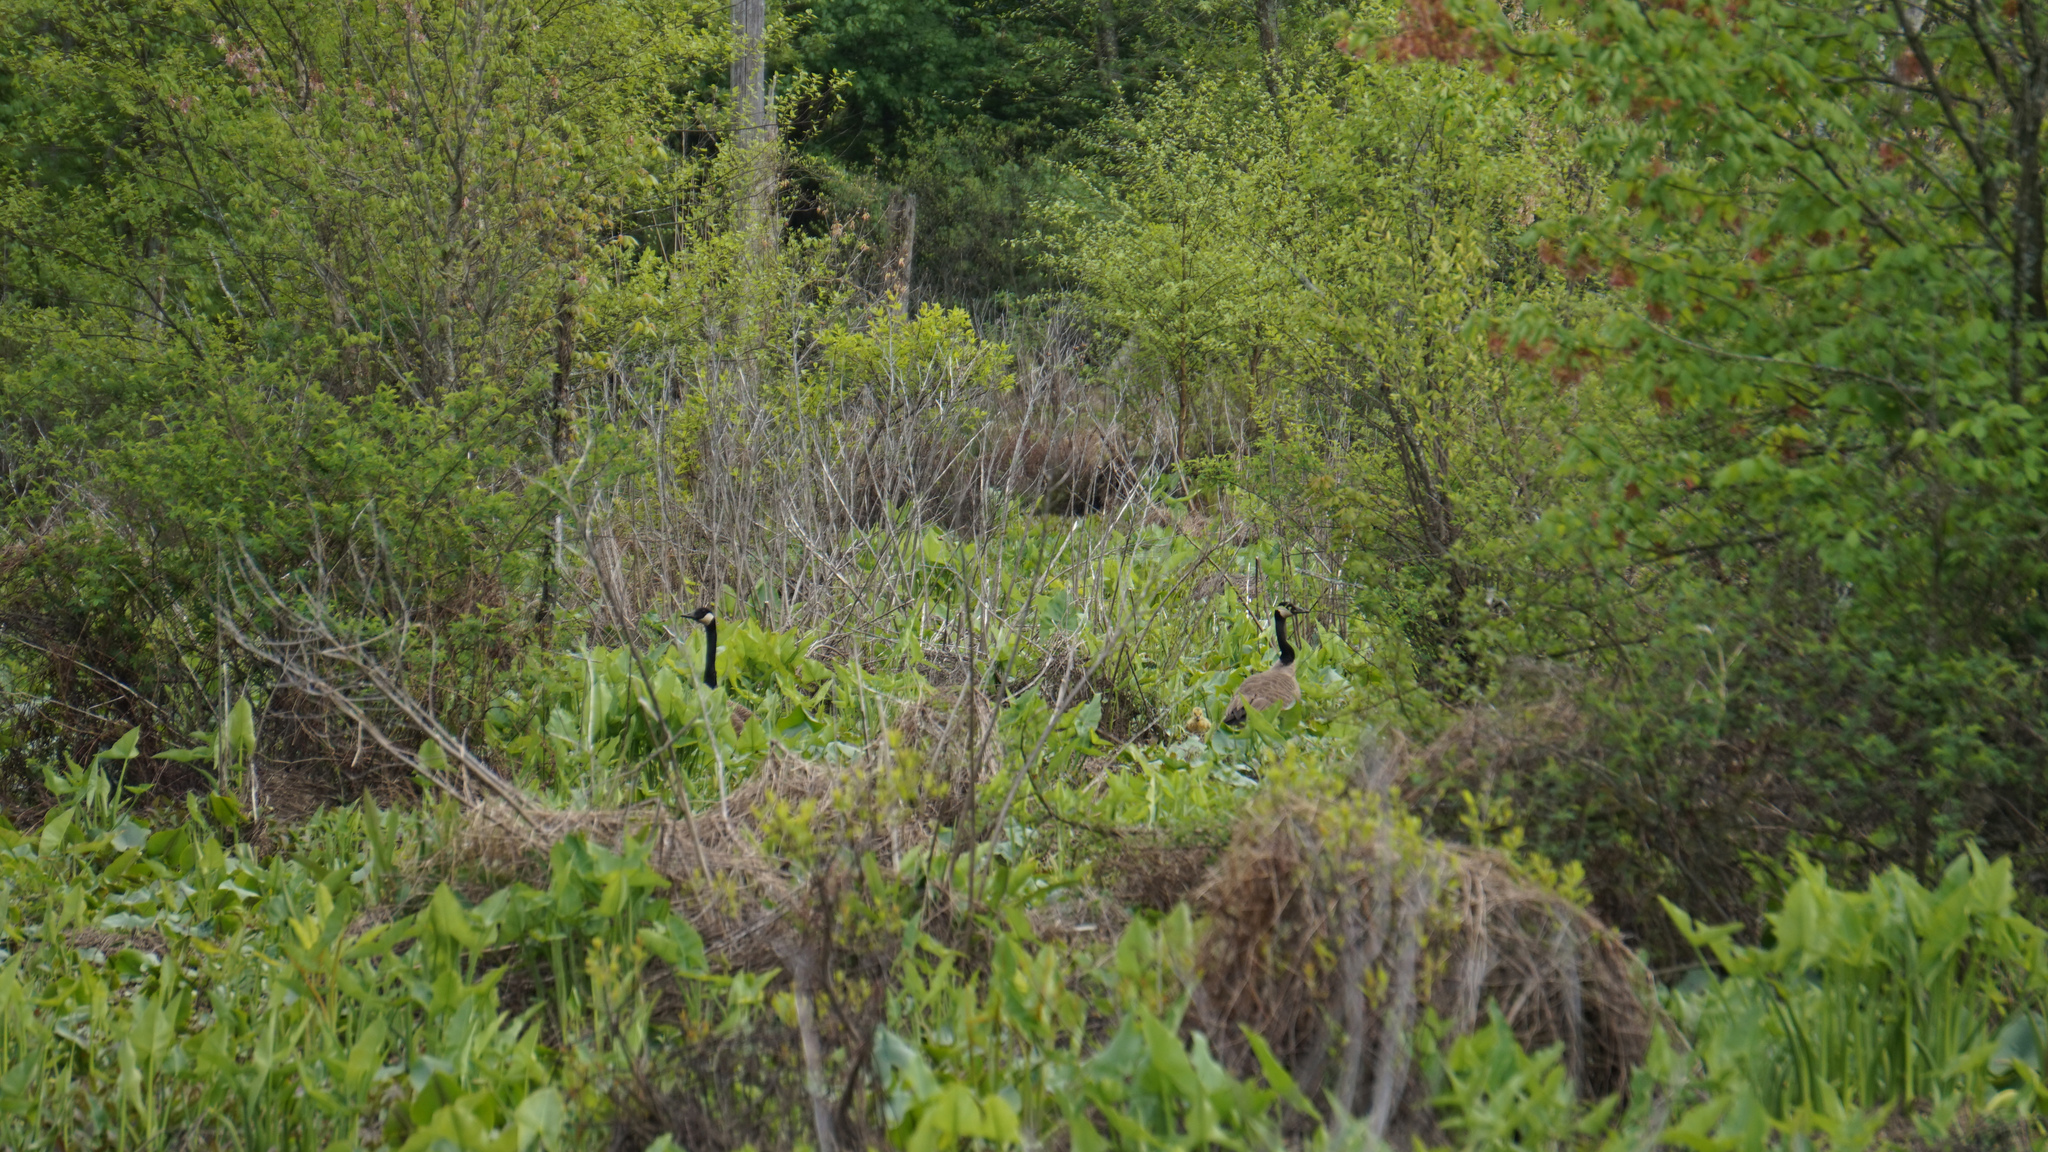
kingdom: Animalia
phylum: Chordata
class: Aves
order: Anseriformes
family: Anatidae
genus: Branta
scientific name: Branta canadensis
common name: Canada goose
